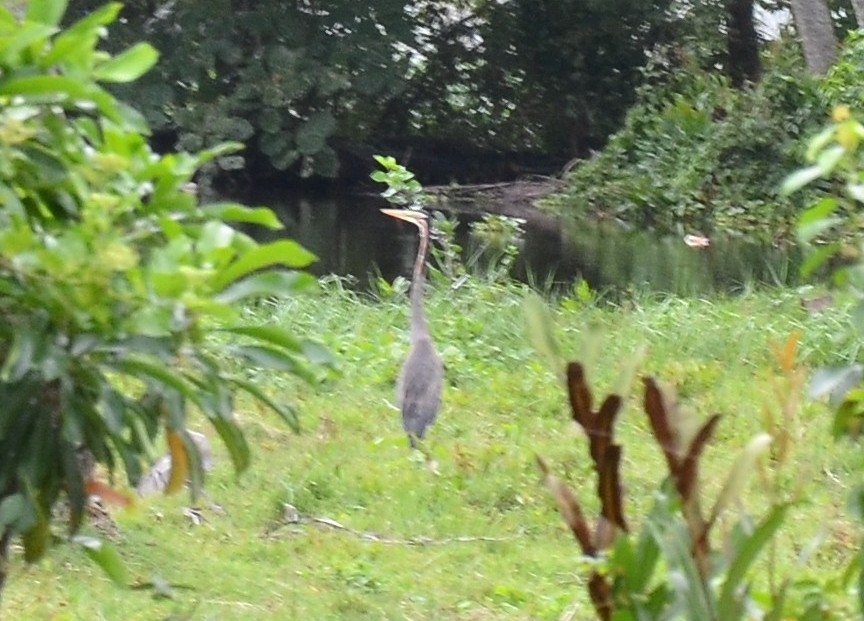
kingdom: Animalia
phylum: Chordata
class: Aves
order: Pelecaniformes
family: Ardeidae
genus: Ardea
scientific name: Ardea purpurea
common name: Purple heron
